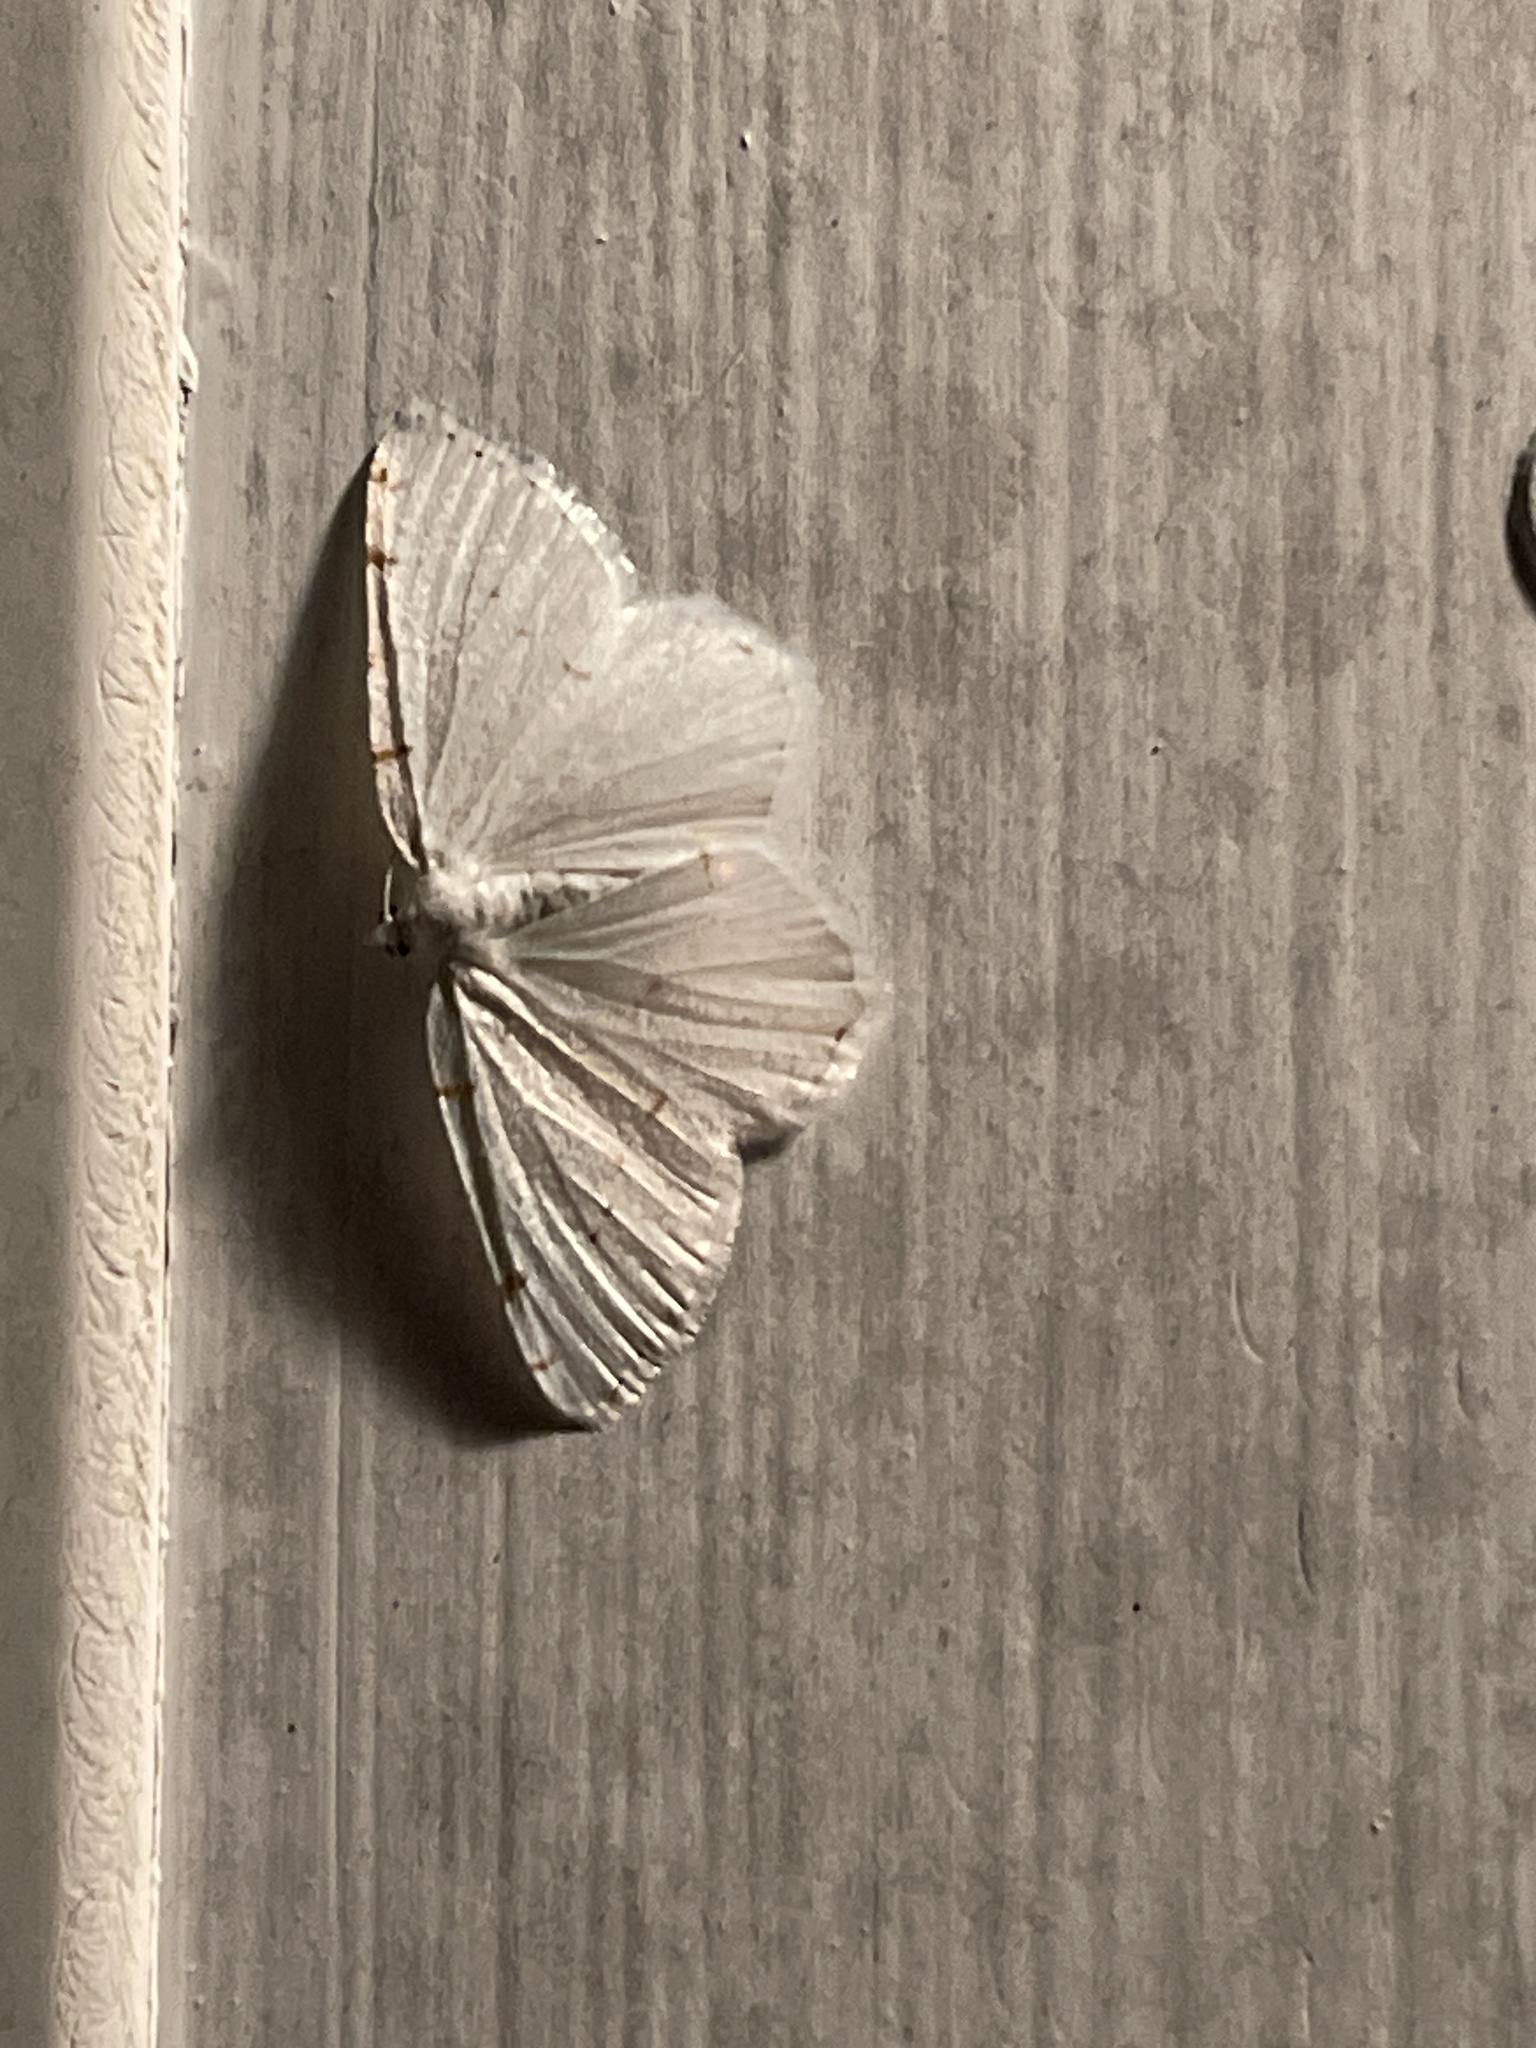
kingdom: Animalia
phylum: Arthropoda
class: Insecta
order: Lepidoptera
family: Geometridae
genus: Macaria
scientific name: Macaria pustularia
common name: Lesser maple spanworm moth
